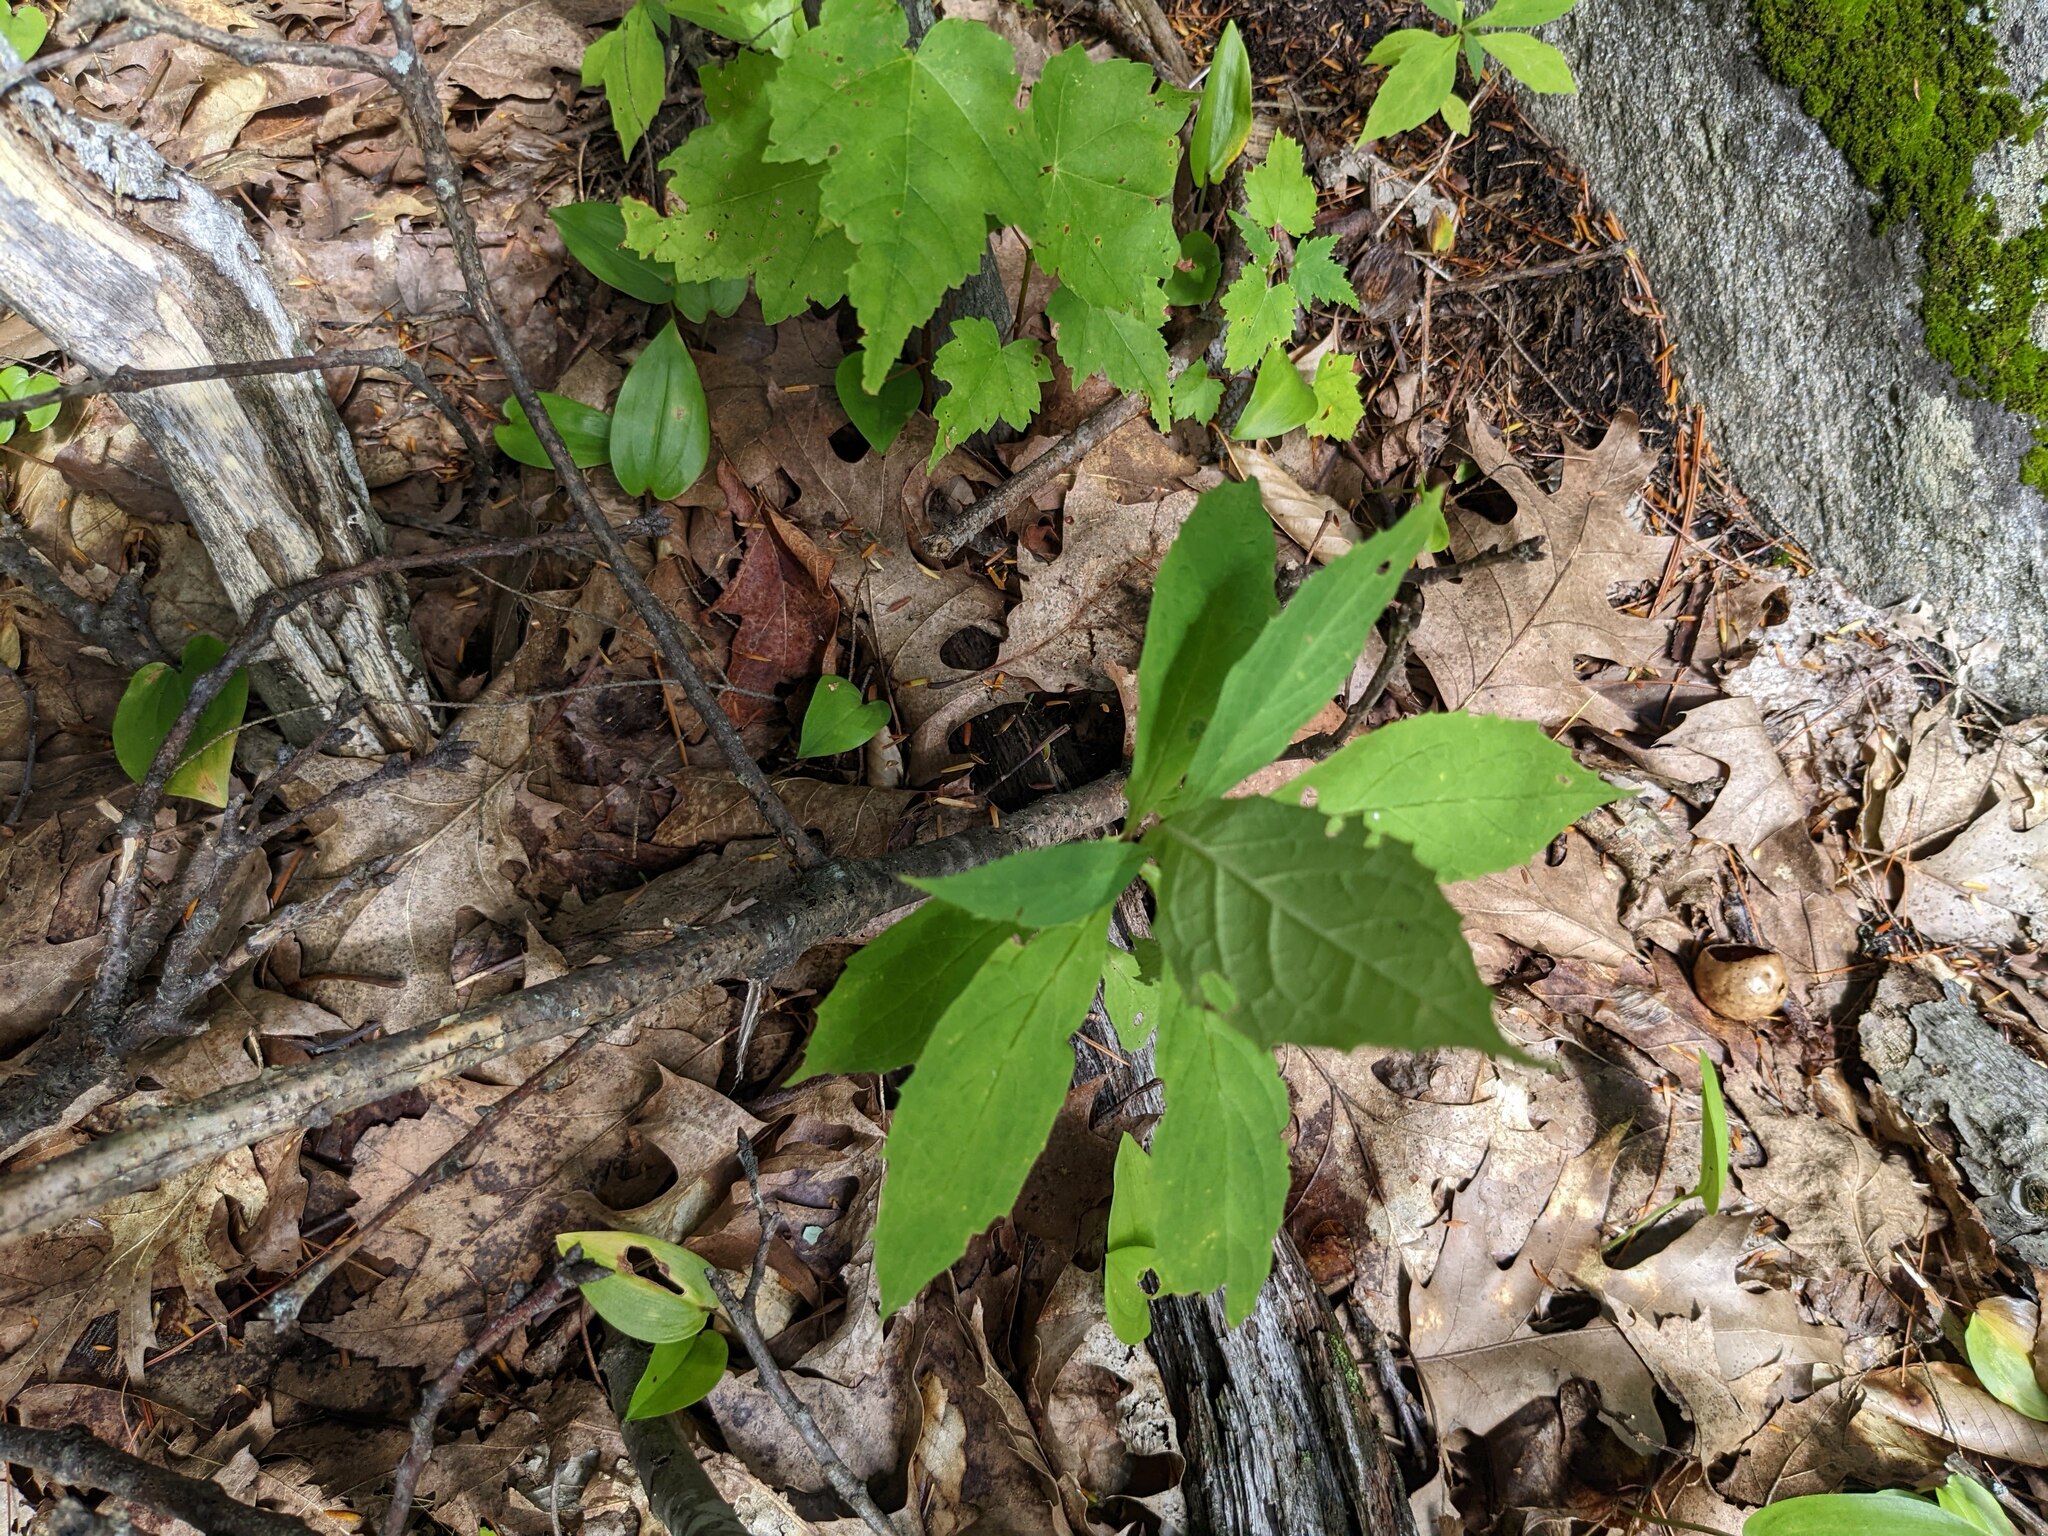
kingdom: Plantae
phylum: Tracheophyta
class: Magnoliopsida
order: Asterales
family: Asteraceae
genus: Oclemena
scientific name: Oclemena acuminata
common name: Mountain aster
